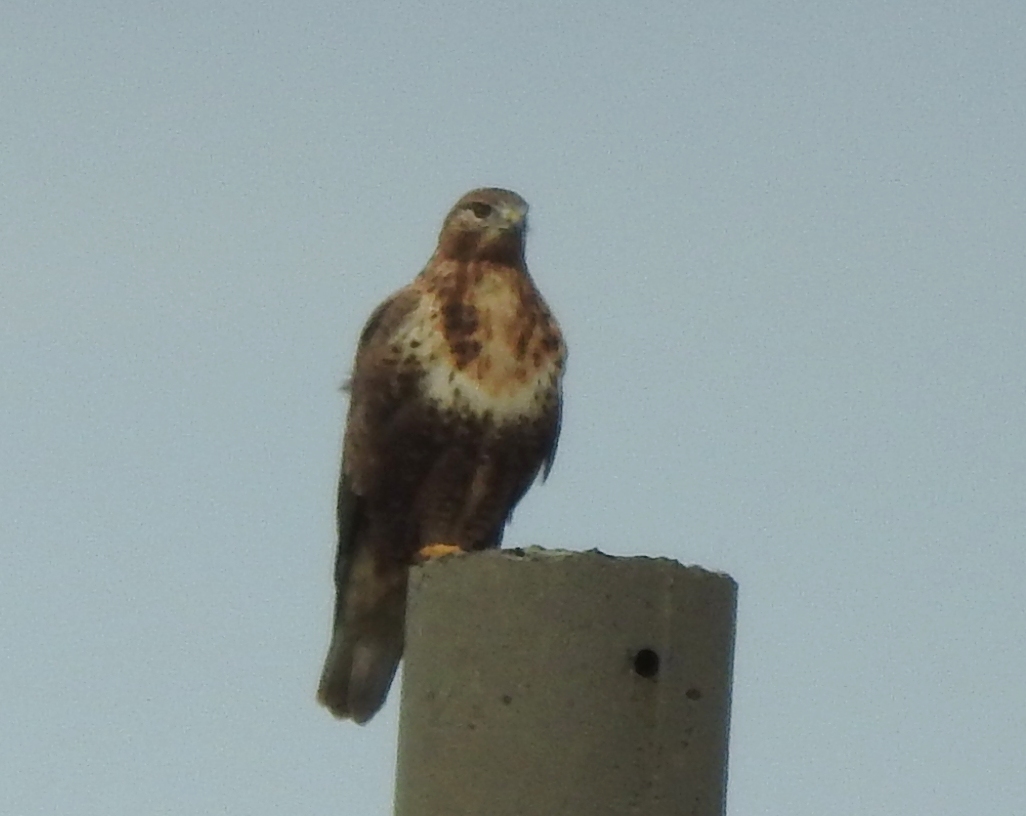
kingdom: Animalia
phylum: Chordata
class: Aves
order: Accipitriformes
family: Accipitridae
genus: Buteo
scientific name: Buteo hemilasius
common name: Upland buzzard
